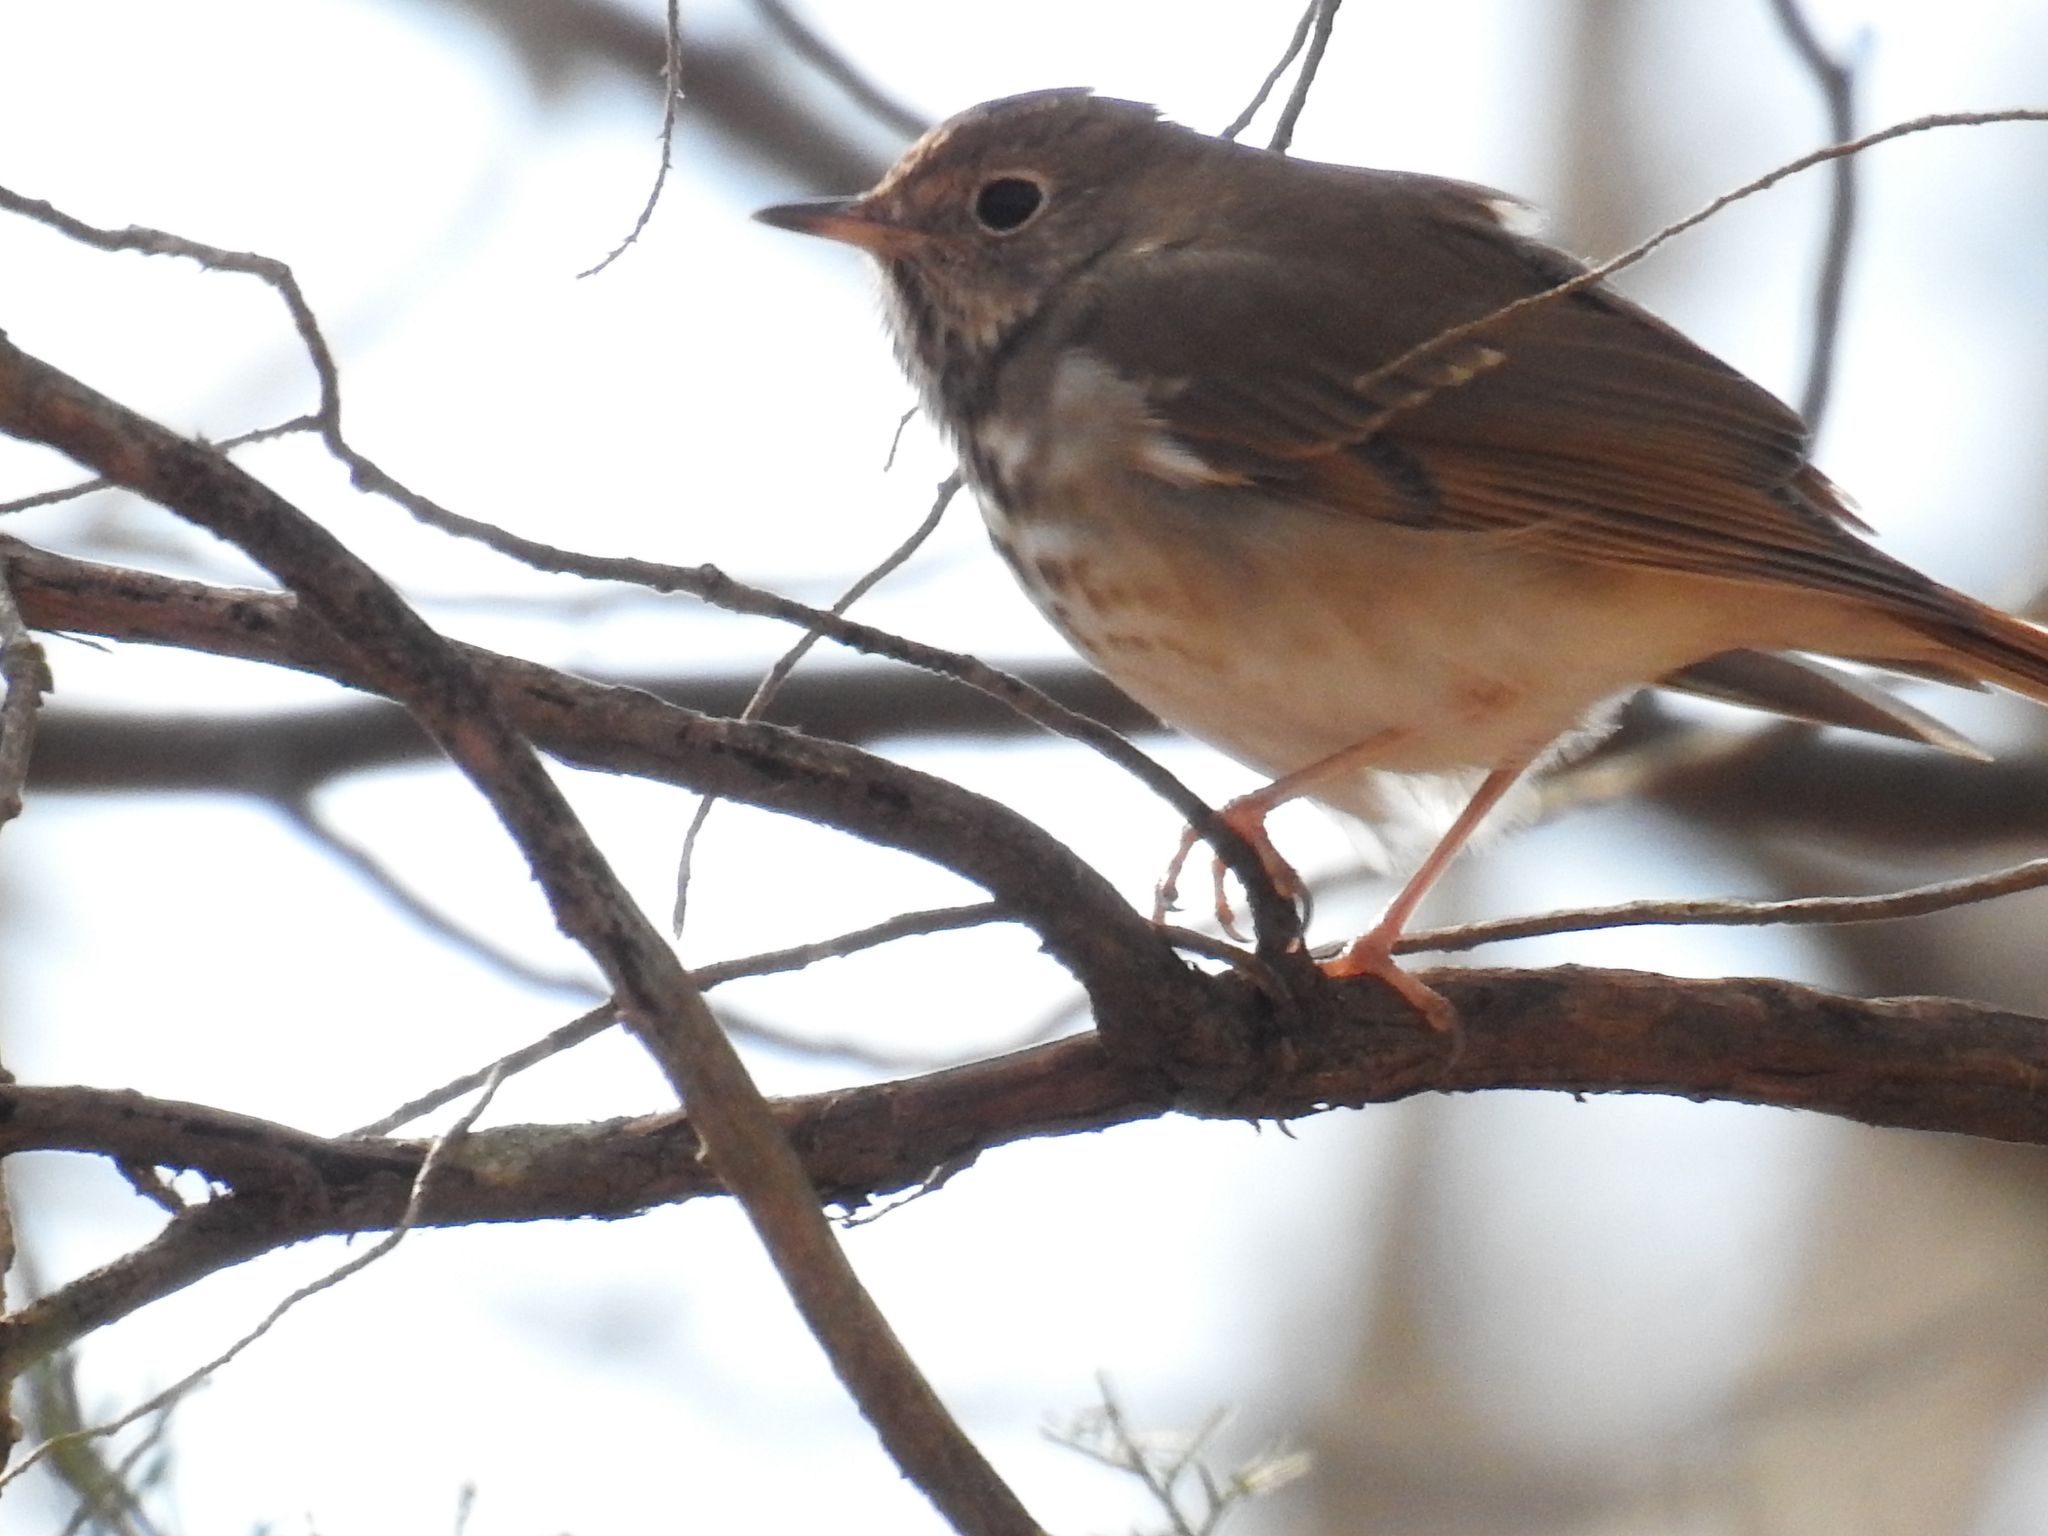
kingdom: Animalia
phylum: Chordata
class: Aves
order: Passeriformes
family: Turdidae
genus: Catharus
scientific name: Catharus guttatus
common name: Hermit thrush
